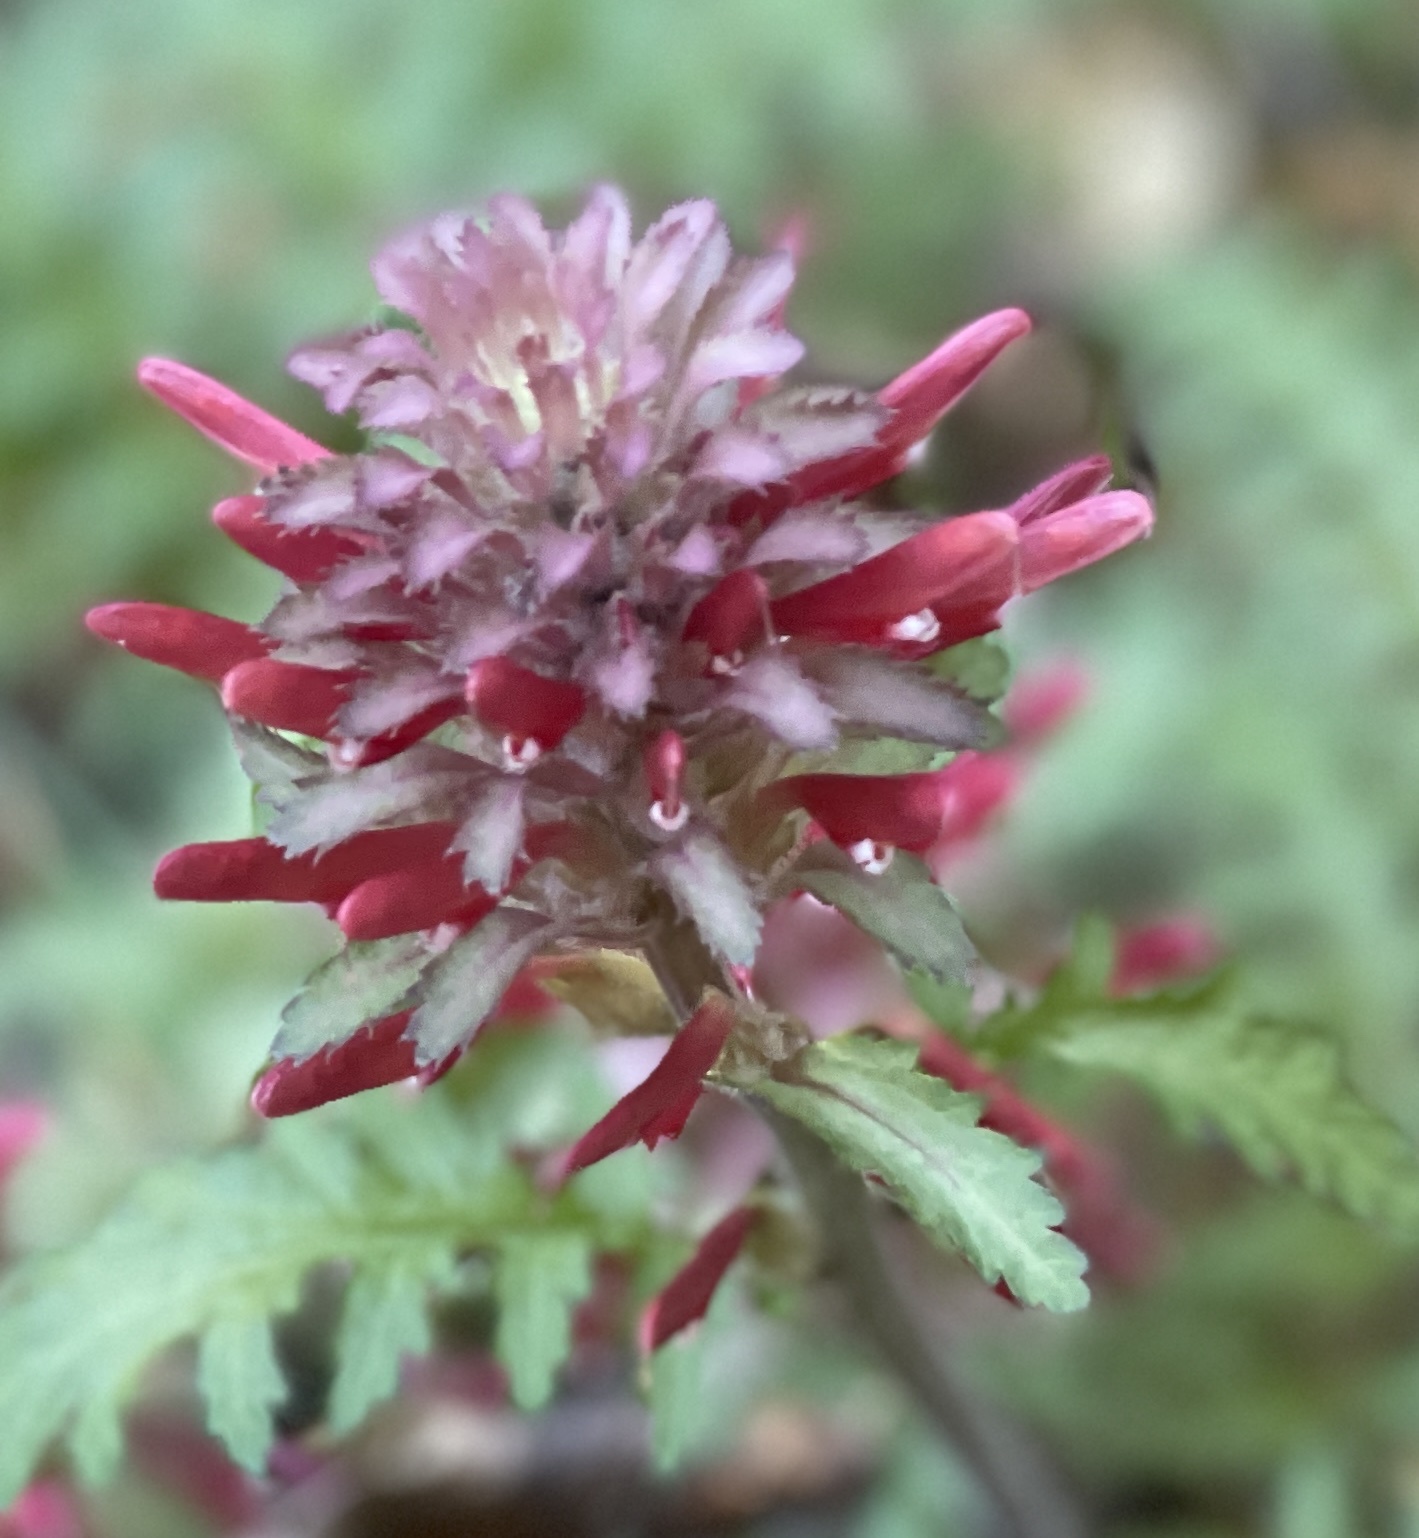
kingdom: Plantae
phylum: Tracheophyta
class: Magnoliopsida
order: Lamiales
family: Orobanchaceae
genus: Pedicularis
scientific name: Pedicularis densiflora
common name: Indian warrior
